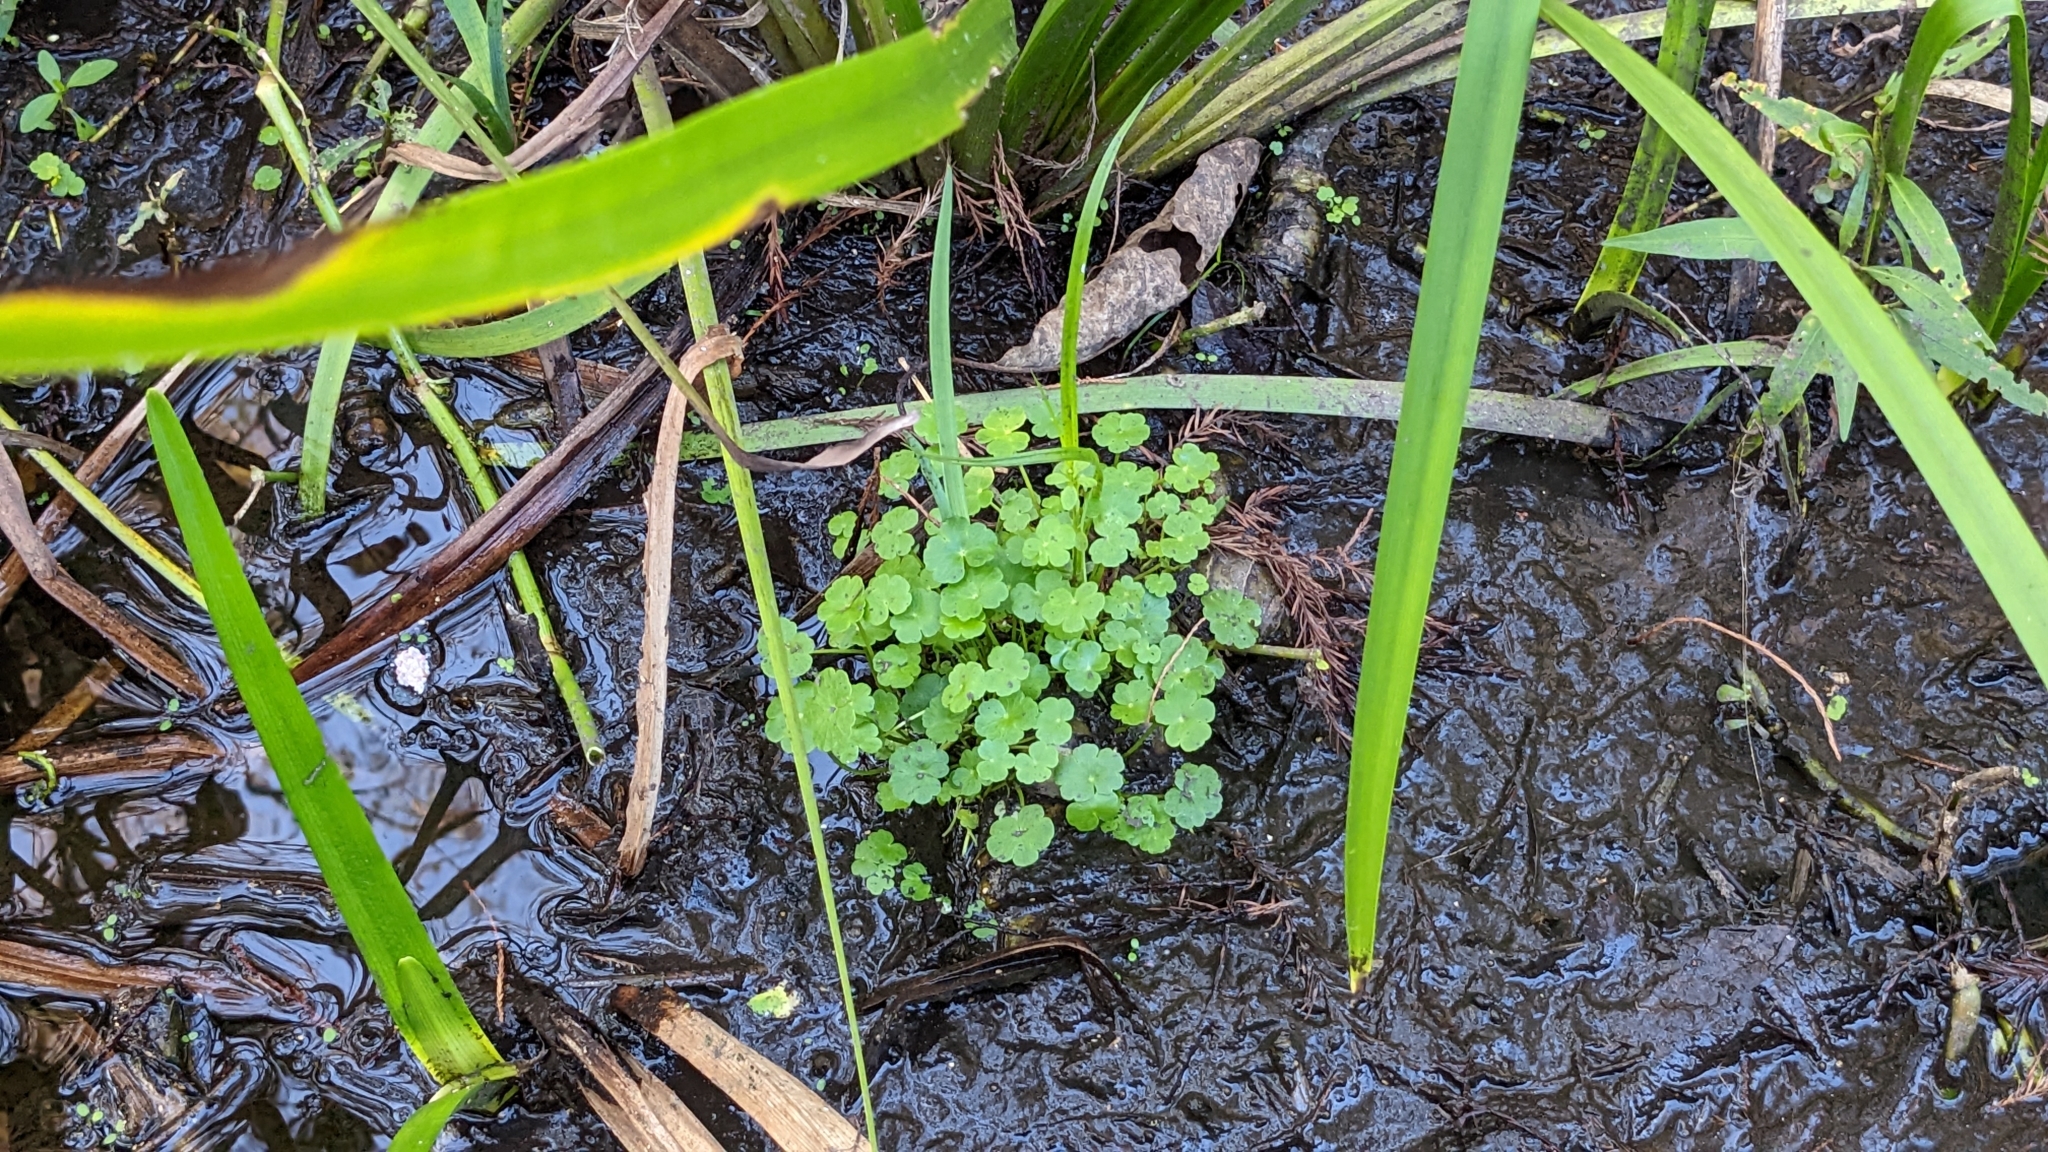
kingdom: Plantae
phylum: Tracheophyta
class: Magnoliopsida
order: Apiales
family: Araliaceae
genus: Hydrocotyle
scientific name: Hydrocotyle ranunculoides
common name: Floating pennywort
